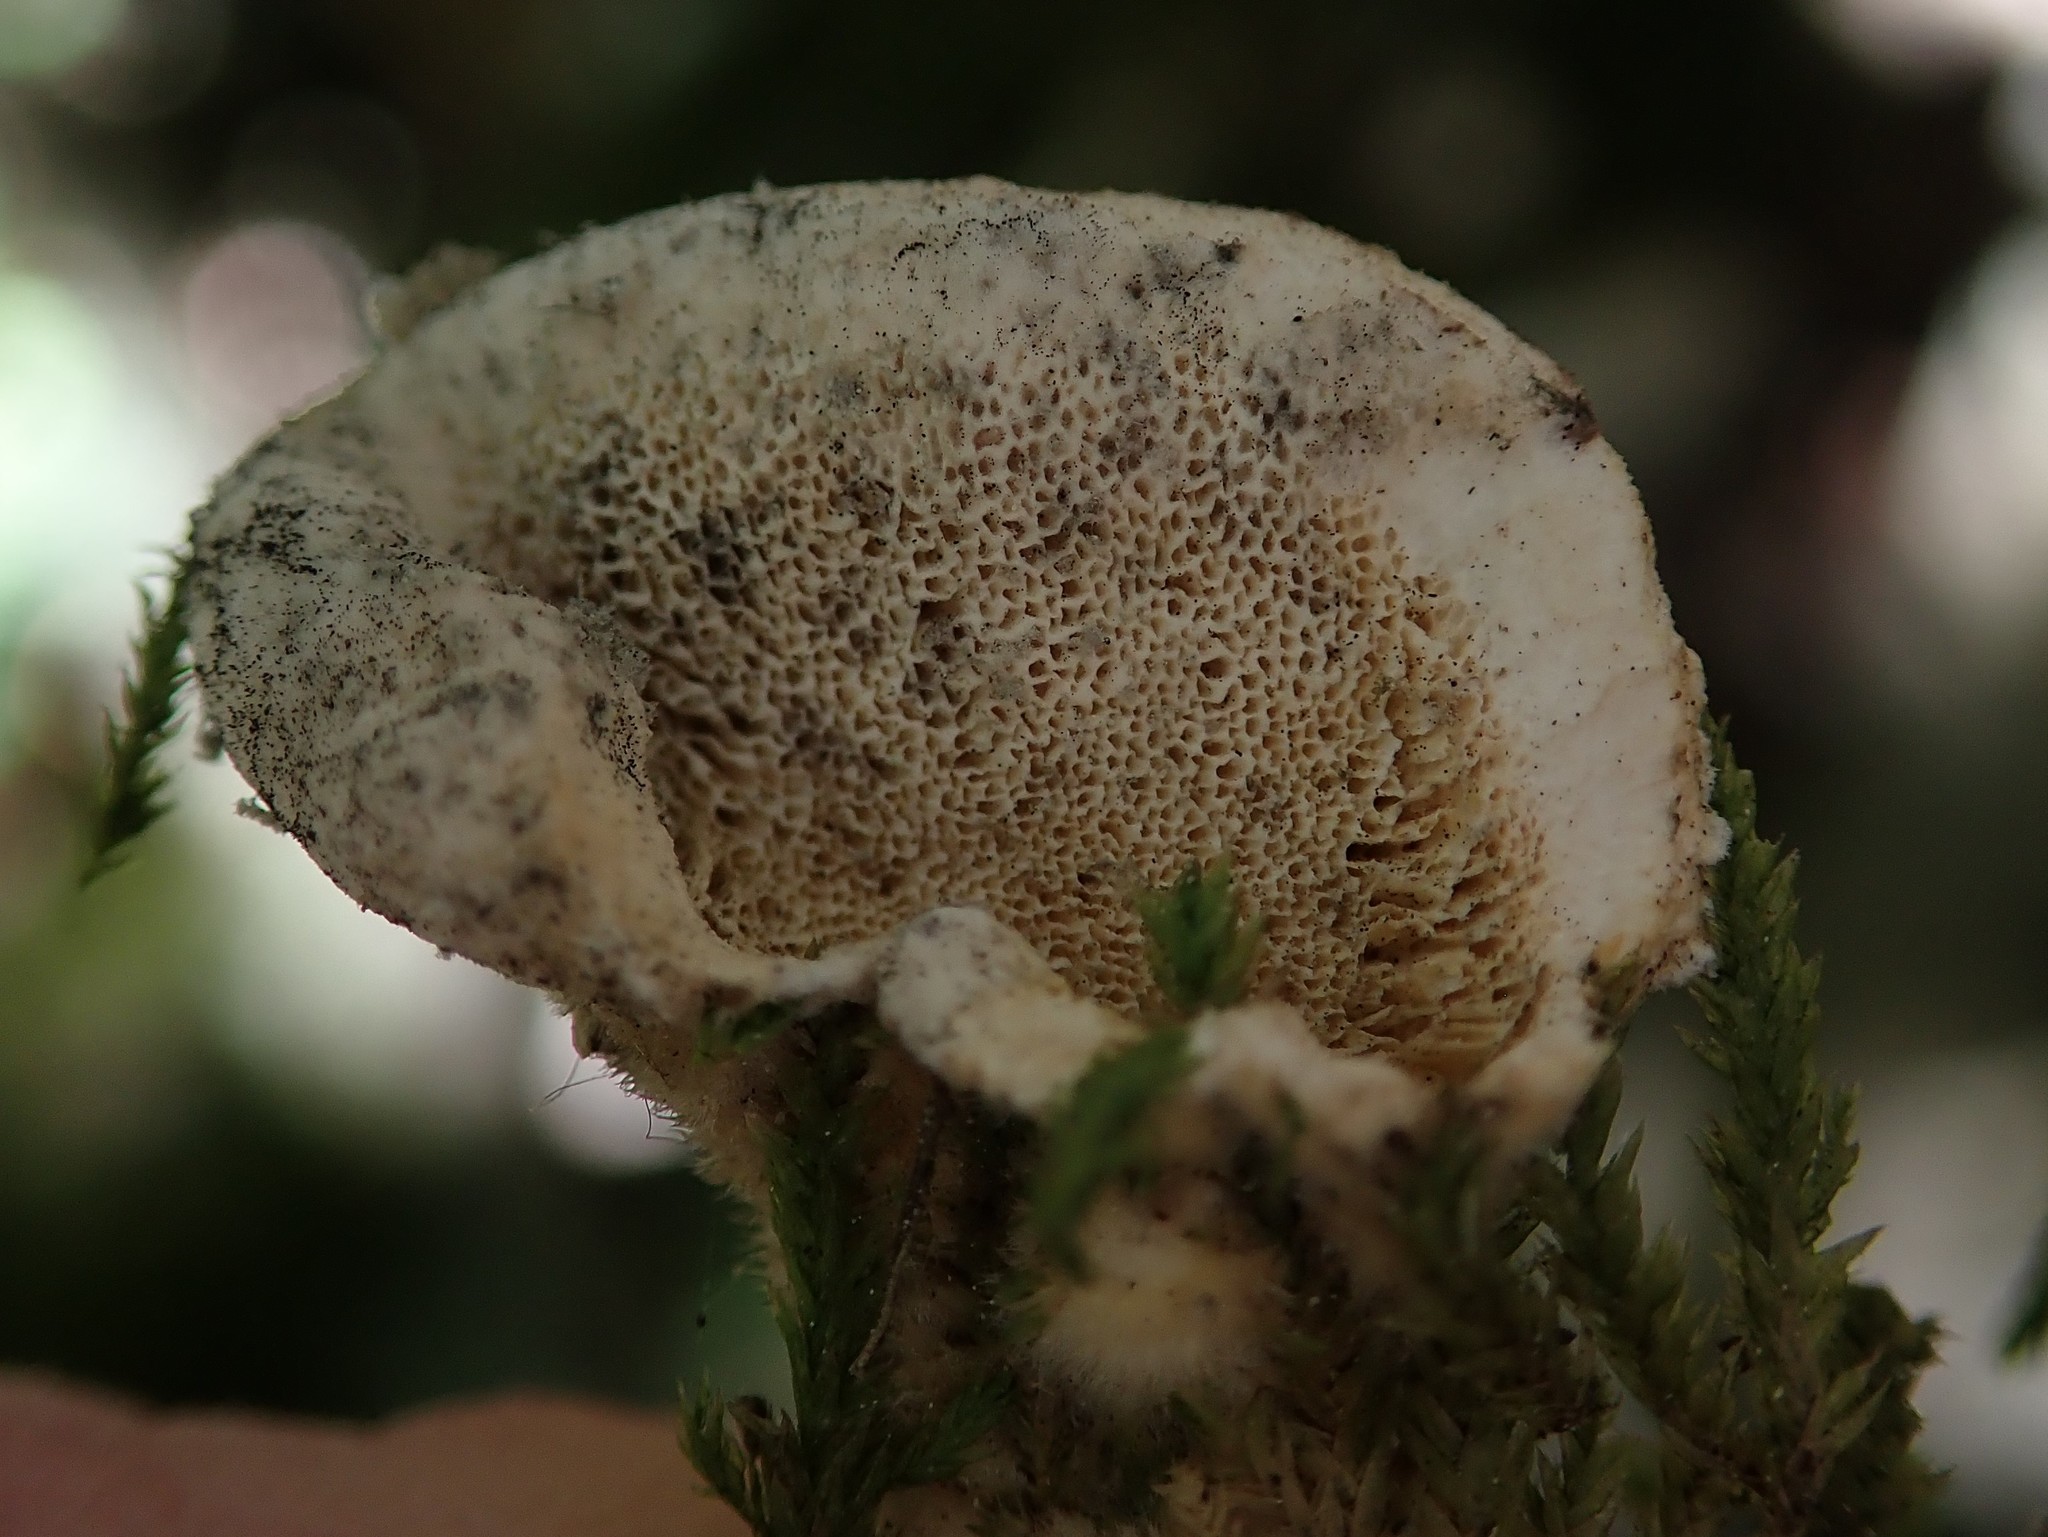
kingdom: Fungi
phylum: Basidiomycota
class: Agaricomycetes
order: Polyporales
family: Polyporaceae
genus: Trametes
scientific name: Trametes hirsuta
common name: Hairy bracket
